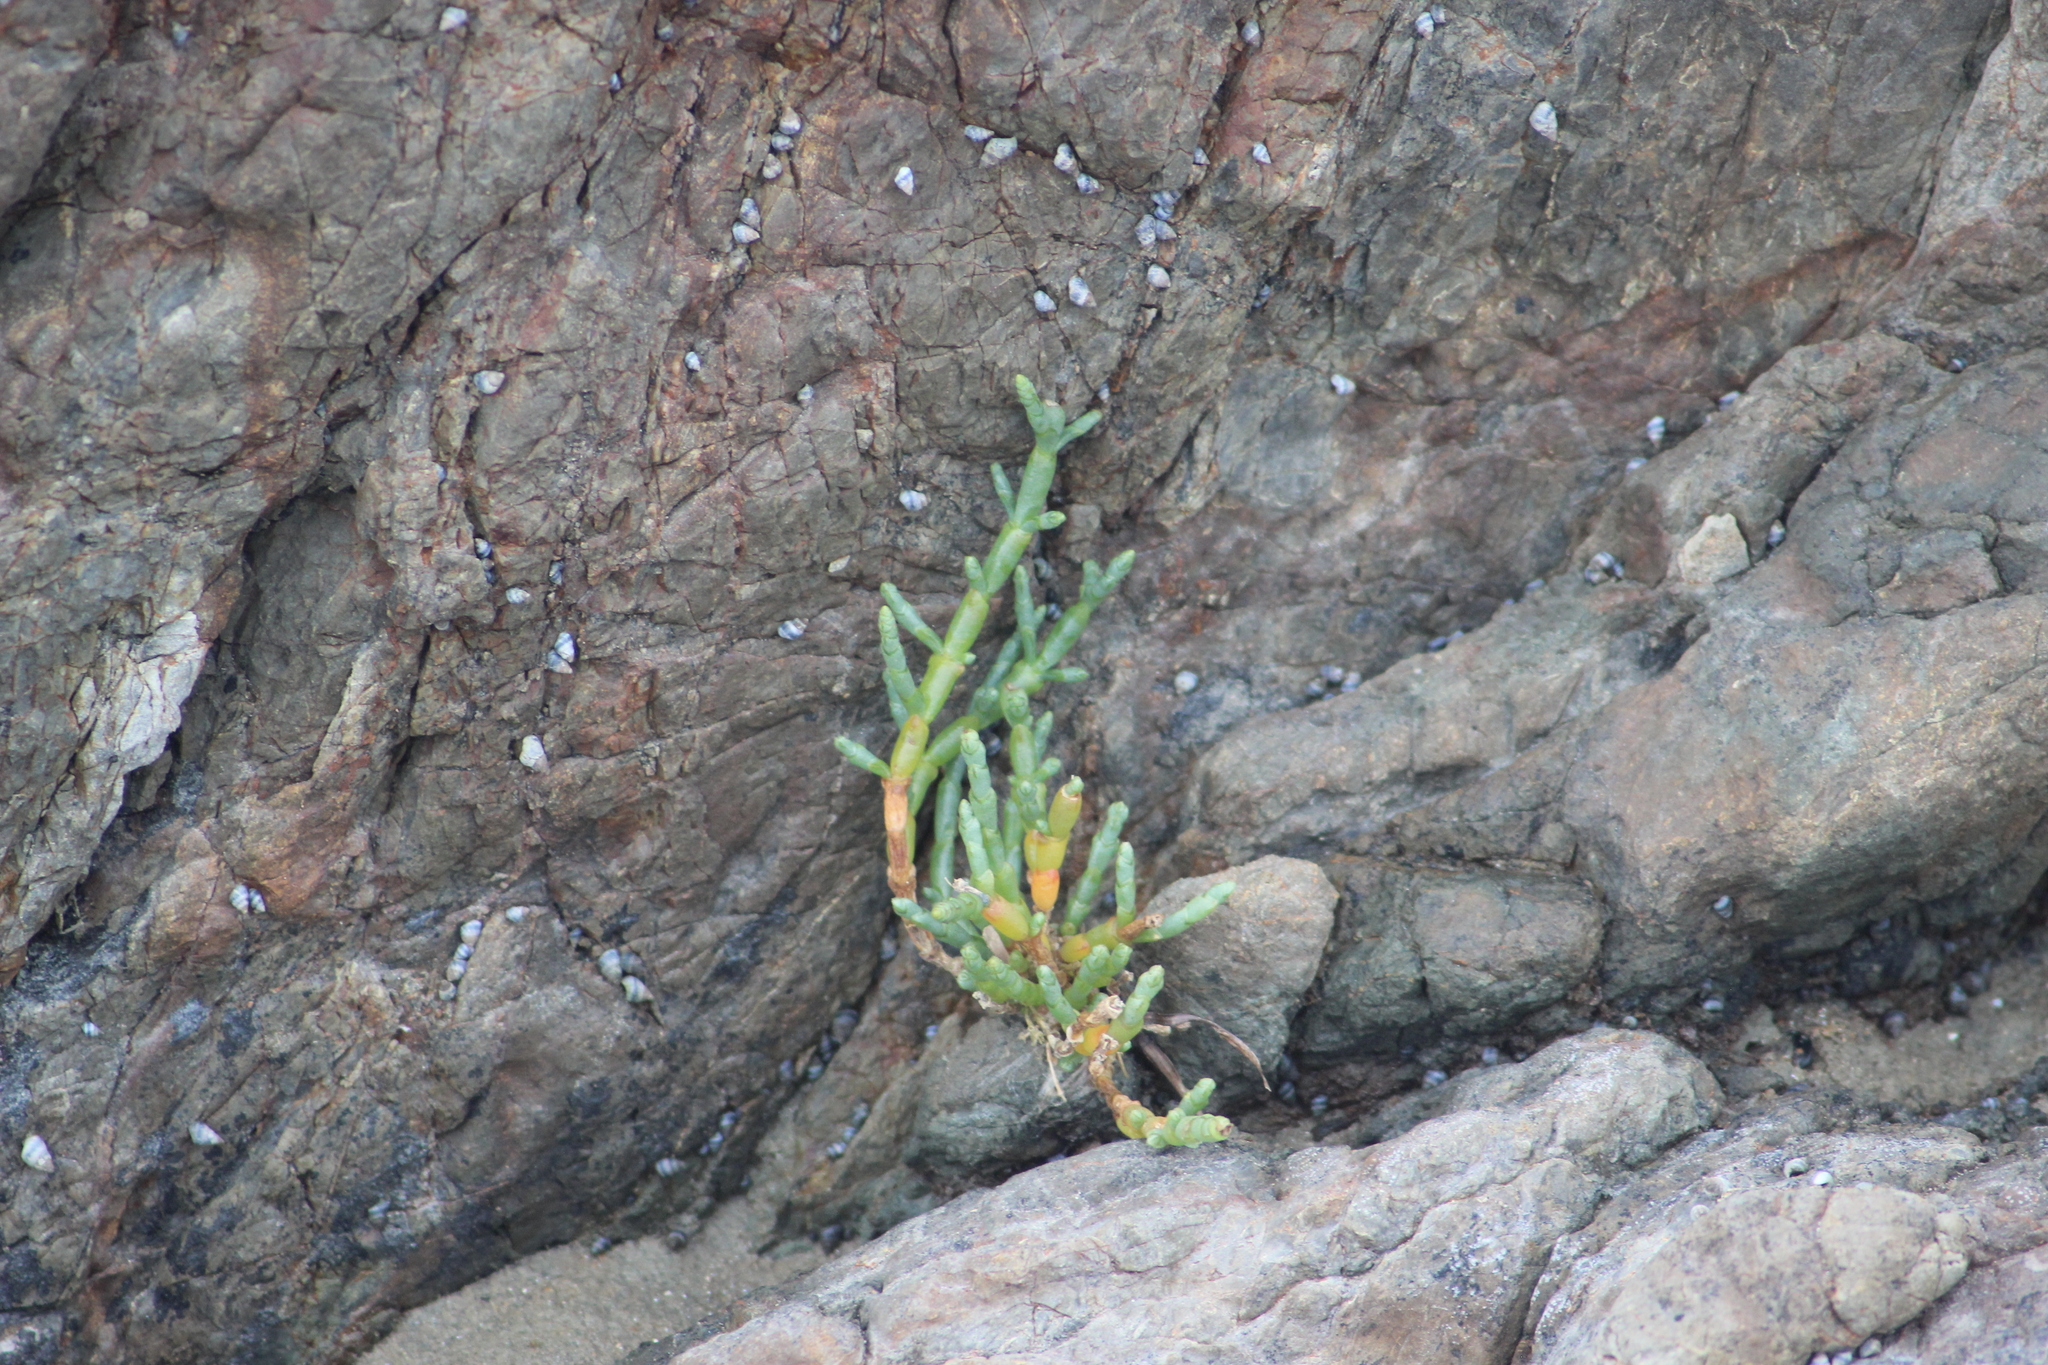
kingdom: Plantae
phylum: Tracheophyta
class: Magnoliopsida
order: Caryophyllales
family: Amaranthaceae
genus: Salicornia
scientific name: Salicornia quinqueflora
